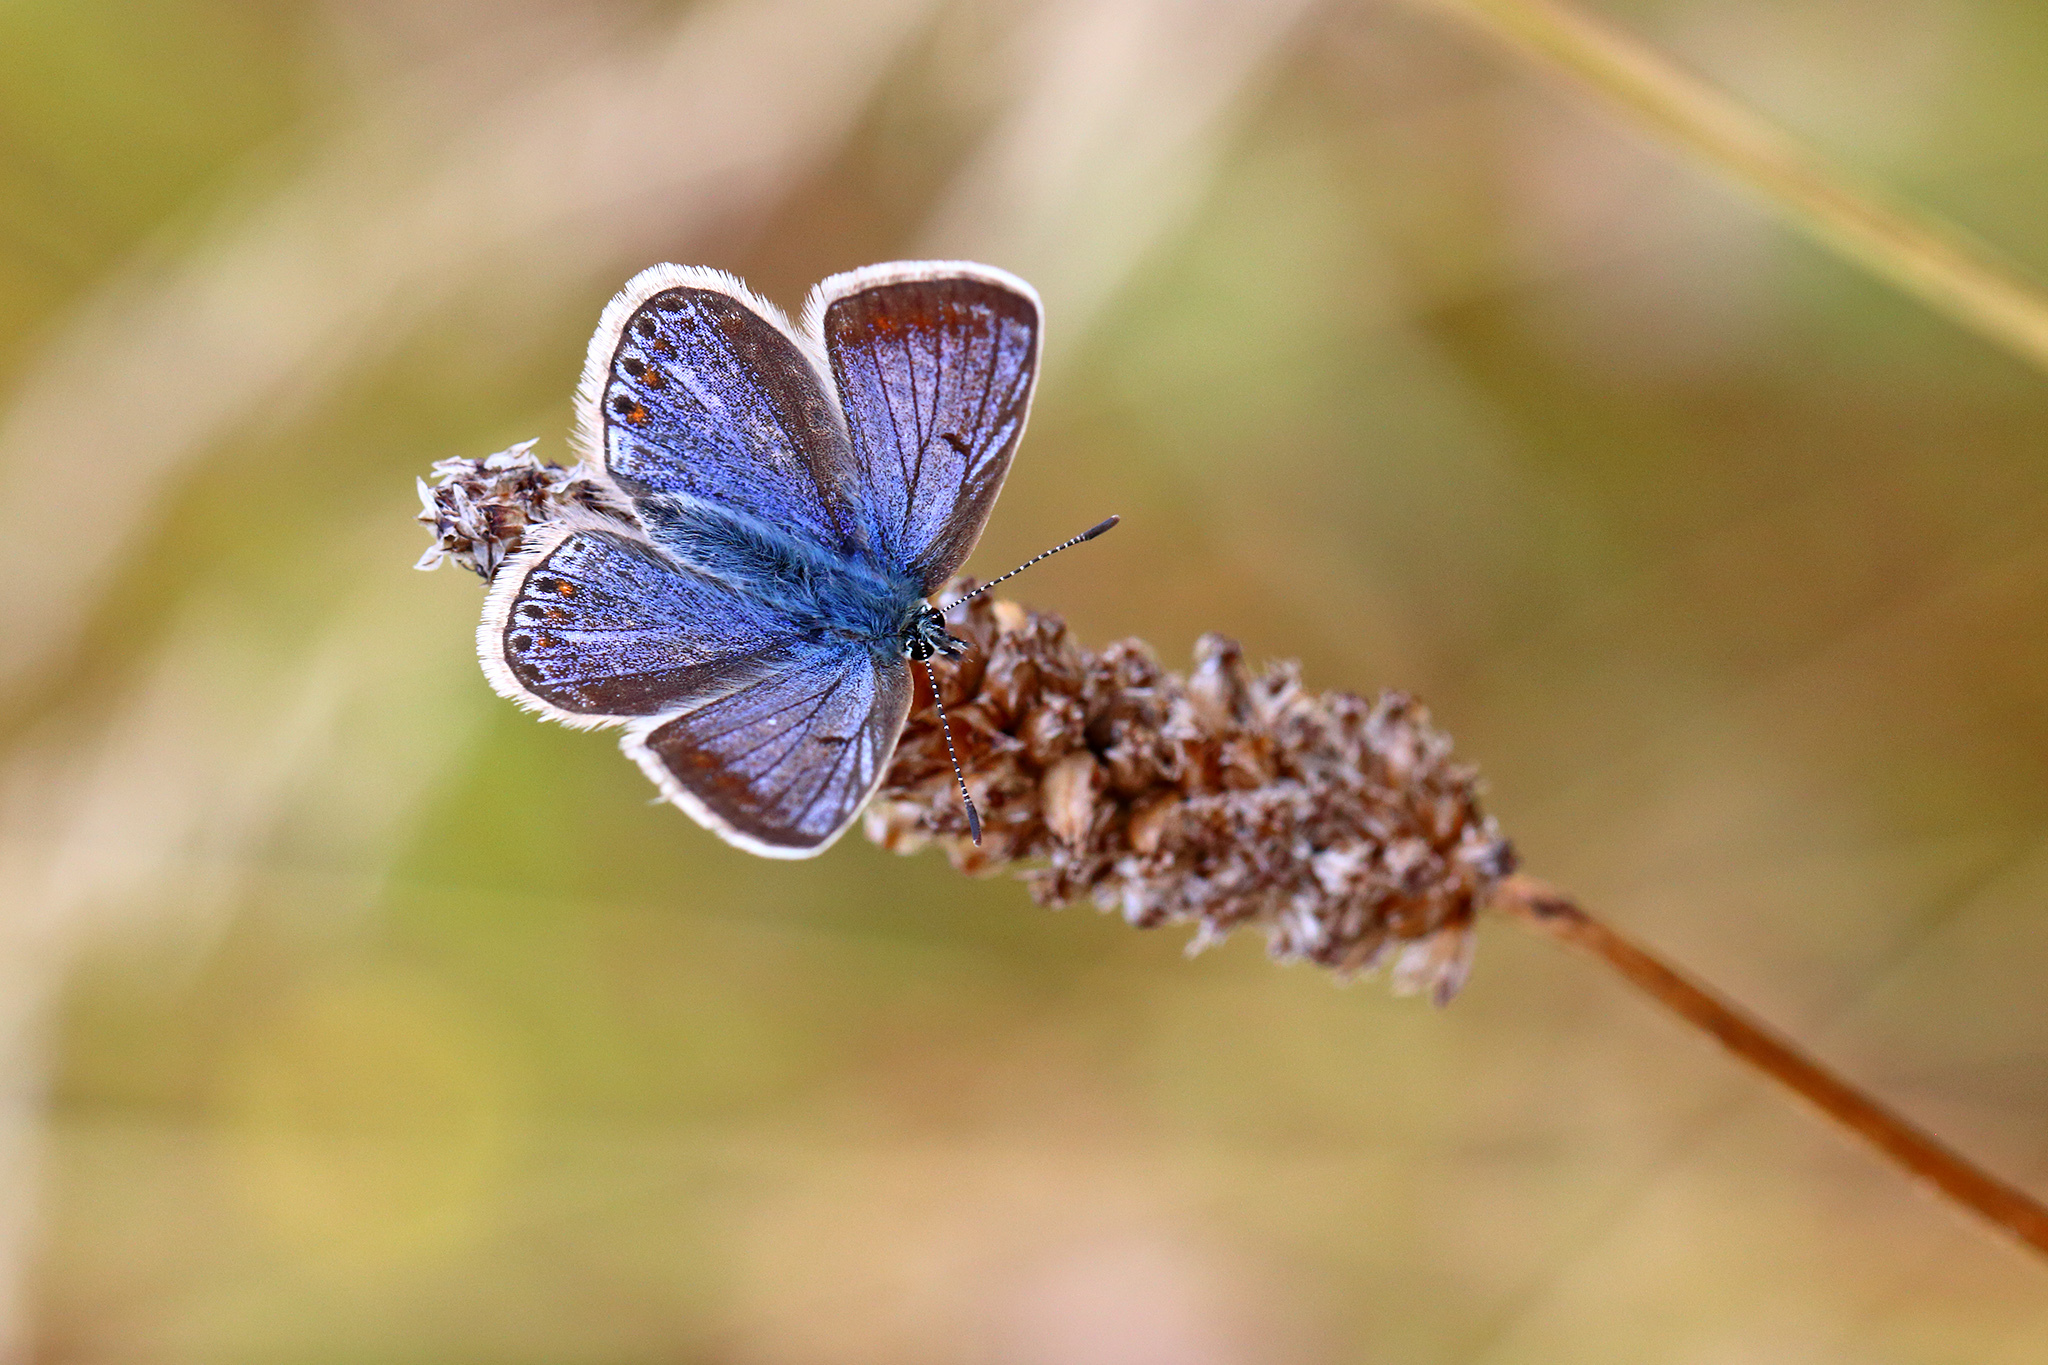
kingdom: Animalia
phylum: Arthropoda
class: Insecta
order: Lepidoptera
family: Lycaenidae
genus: Polyommatus
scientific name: Polyommatus icarus
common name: Common blue
